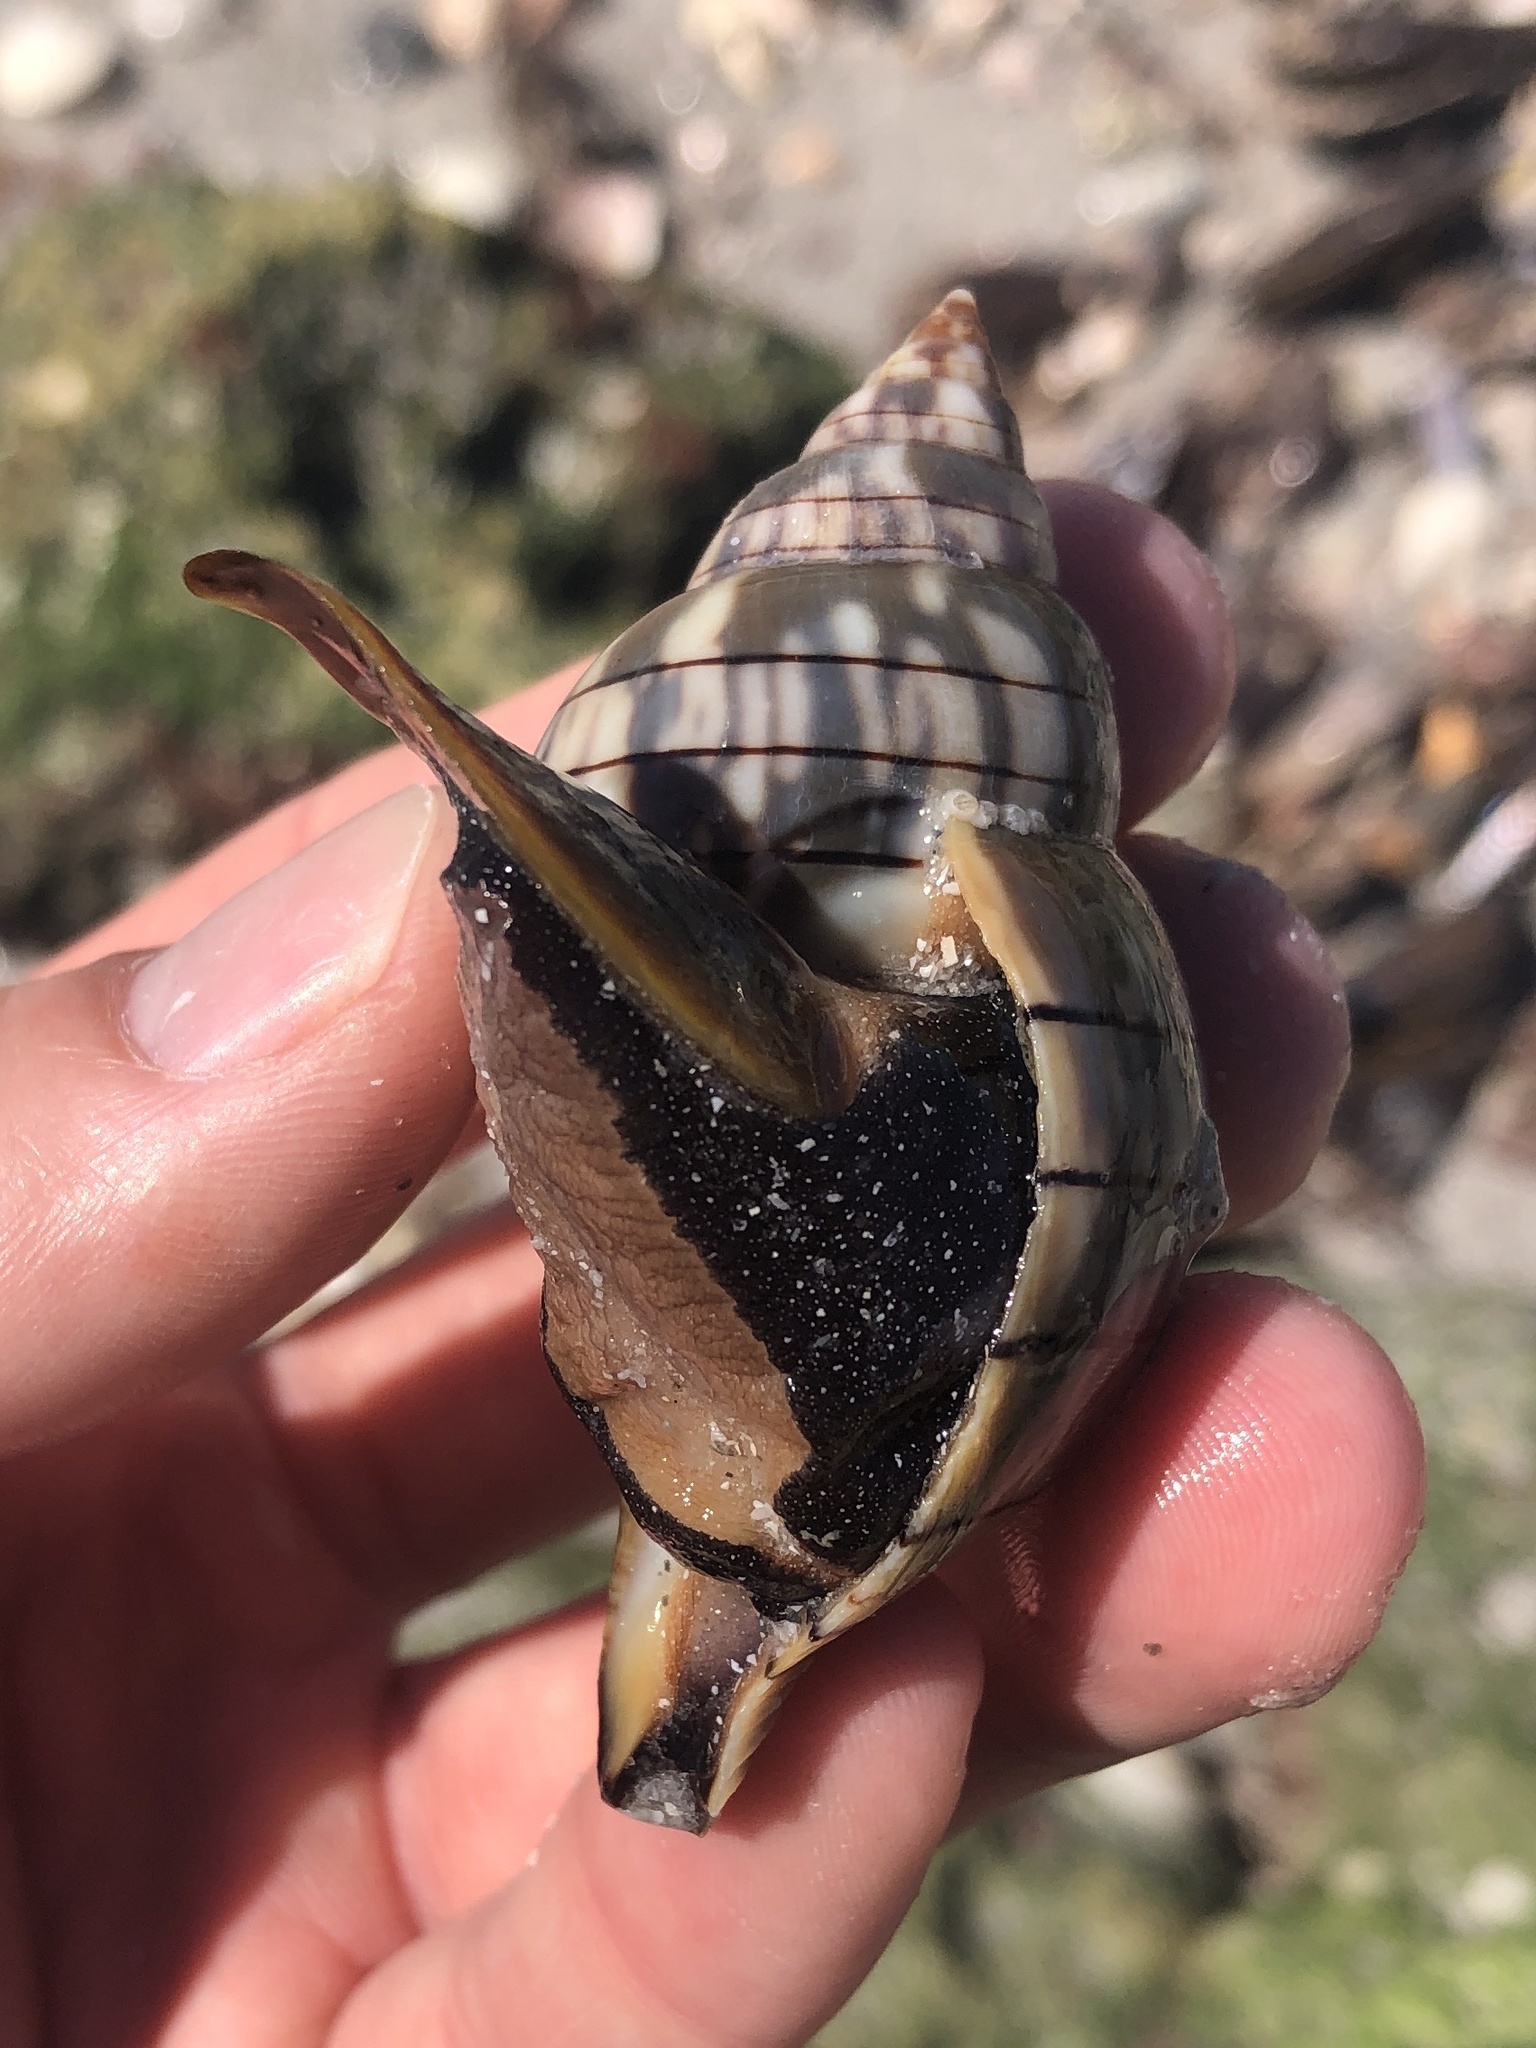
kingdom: Animalia
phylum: Mollusca
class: Gastropoda
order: Neogastropoda
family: Fasciolariidae
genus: Cinctura
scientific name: Cinctura hunteria
